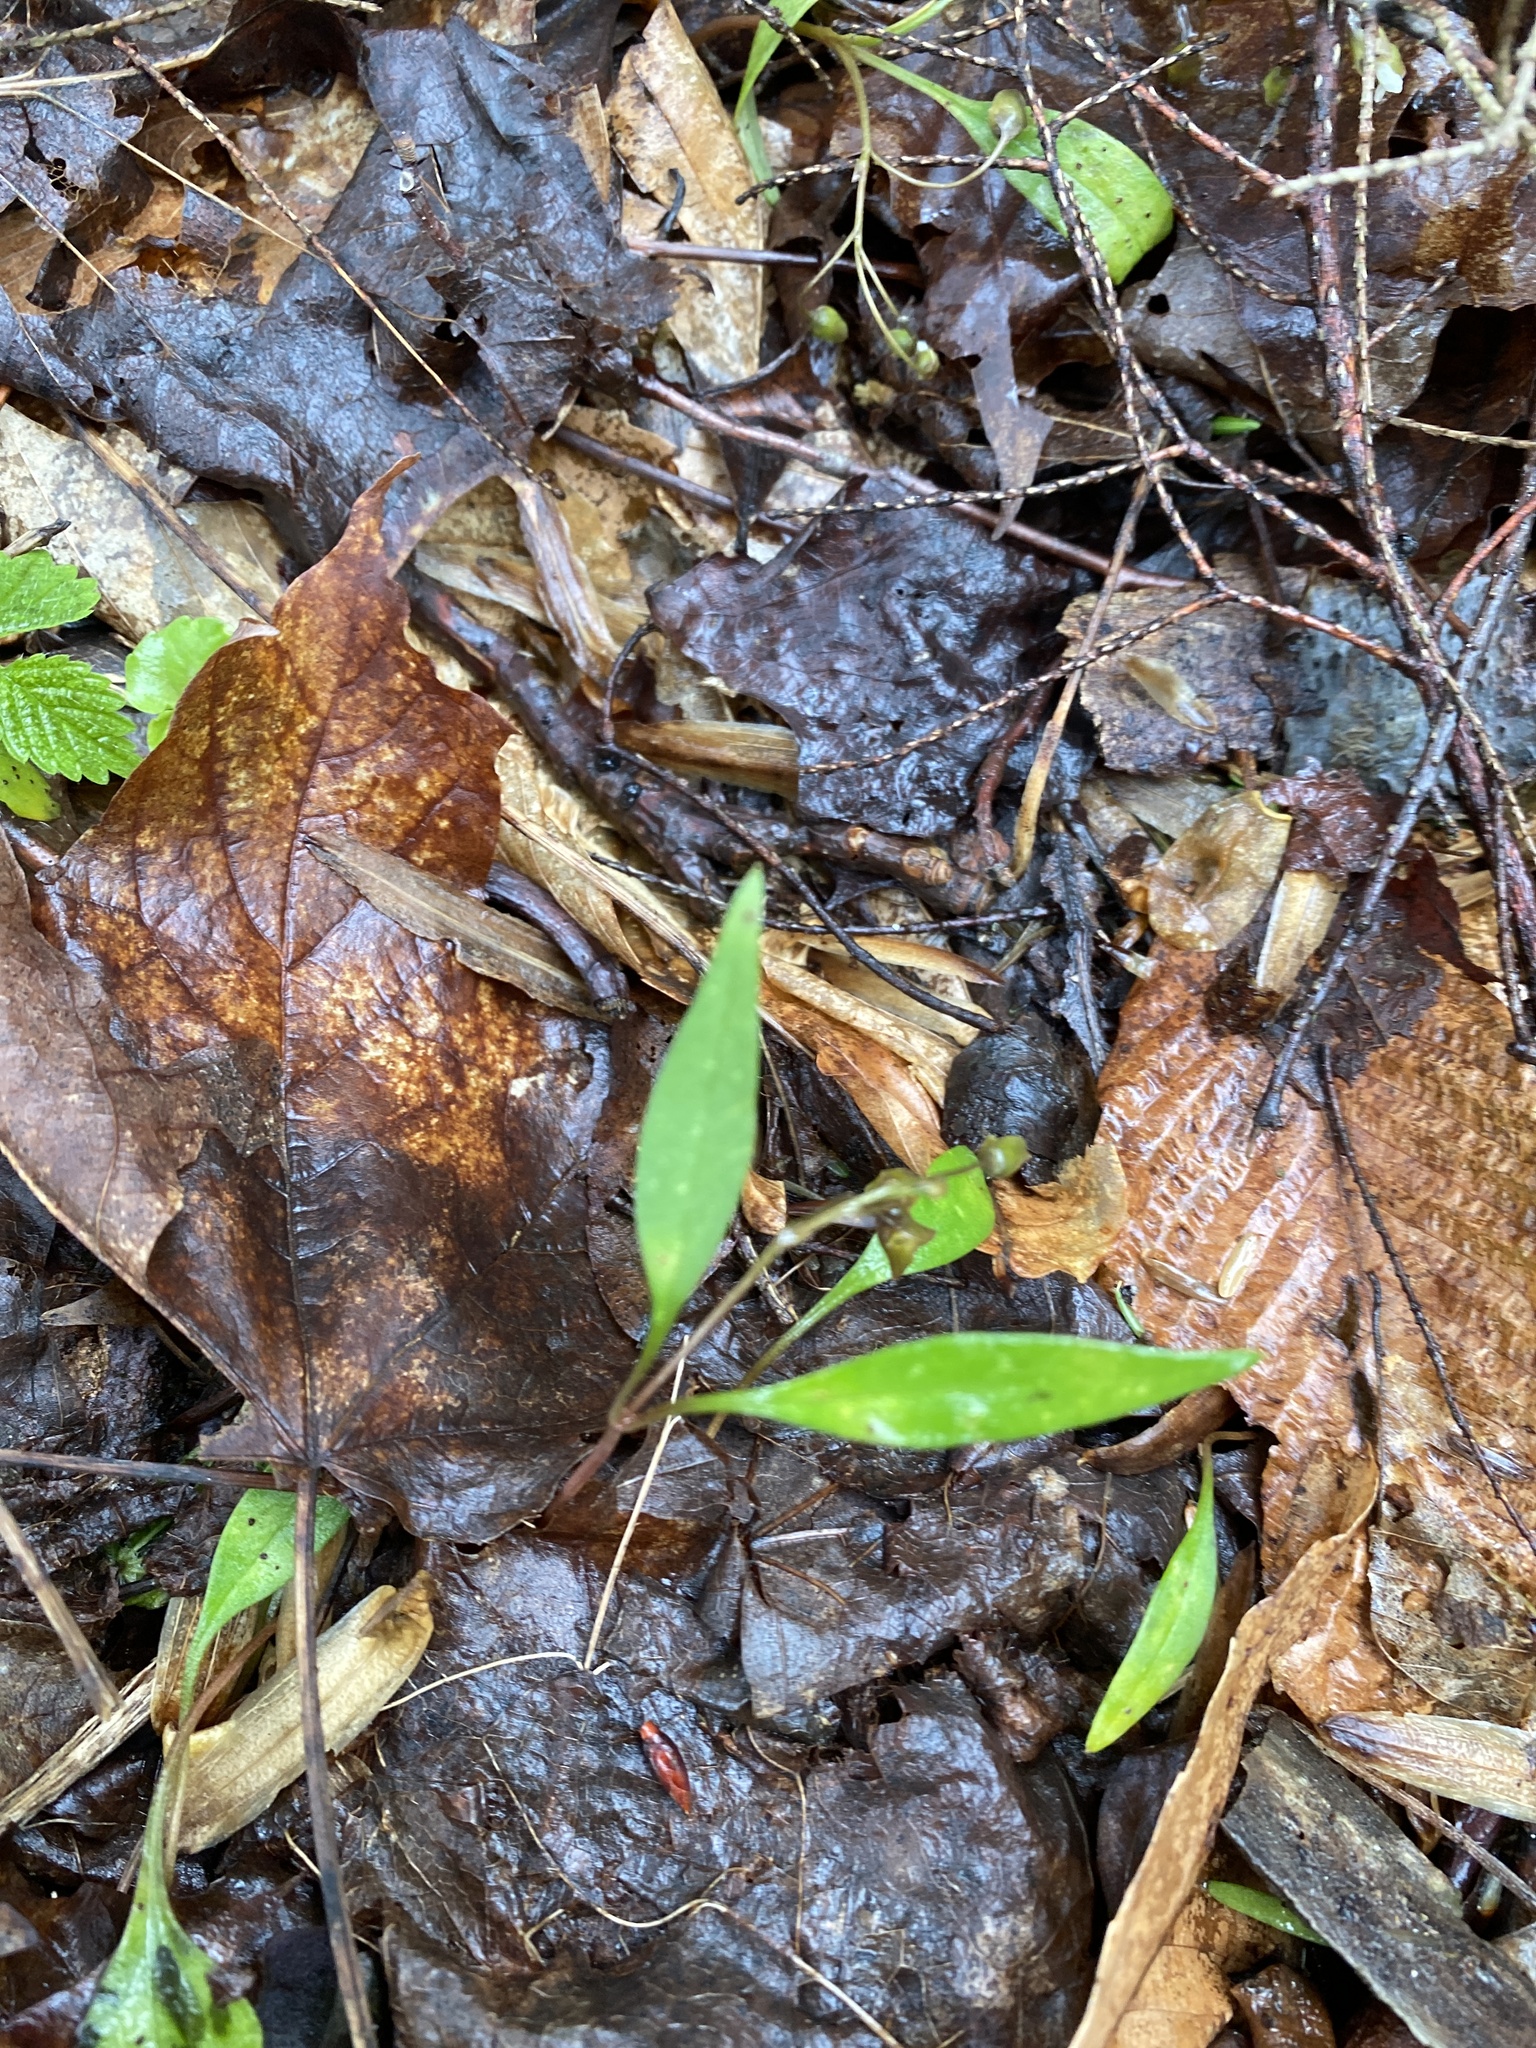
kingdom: Plantae
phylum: Tracheophyta
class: Magnoliopsida
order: Caryophyllales
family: Montiaceae
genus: Claytonia
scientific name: Claytonia caroliniana
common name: Carolina spring beauty
